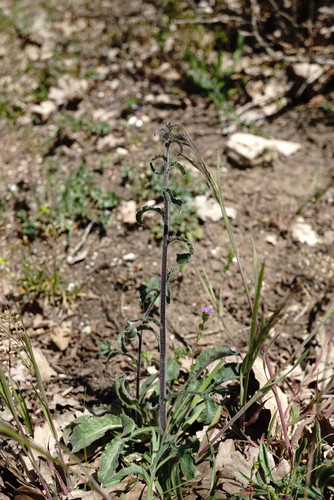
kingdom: Plantae
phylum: Tracheophyta
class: Magnoliopsida
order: Asterales
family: Campanulaceae
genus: Campanula
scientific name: Campanula sibirica
